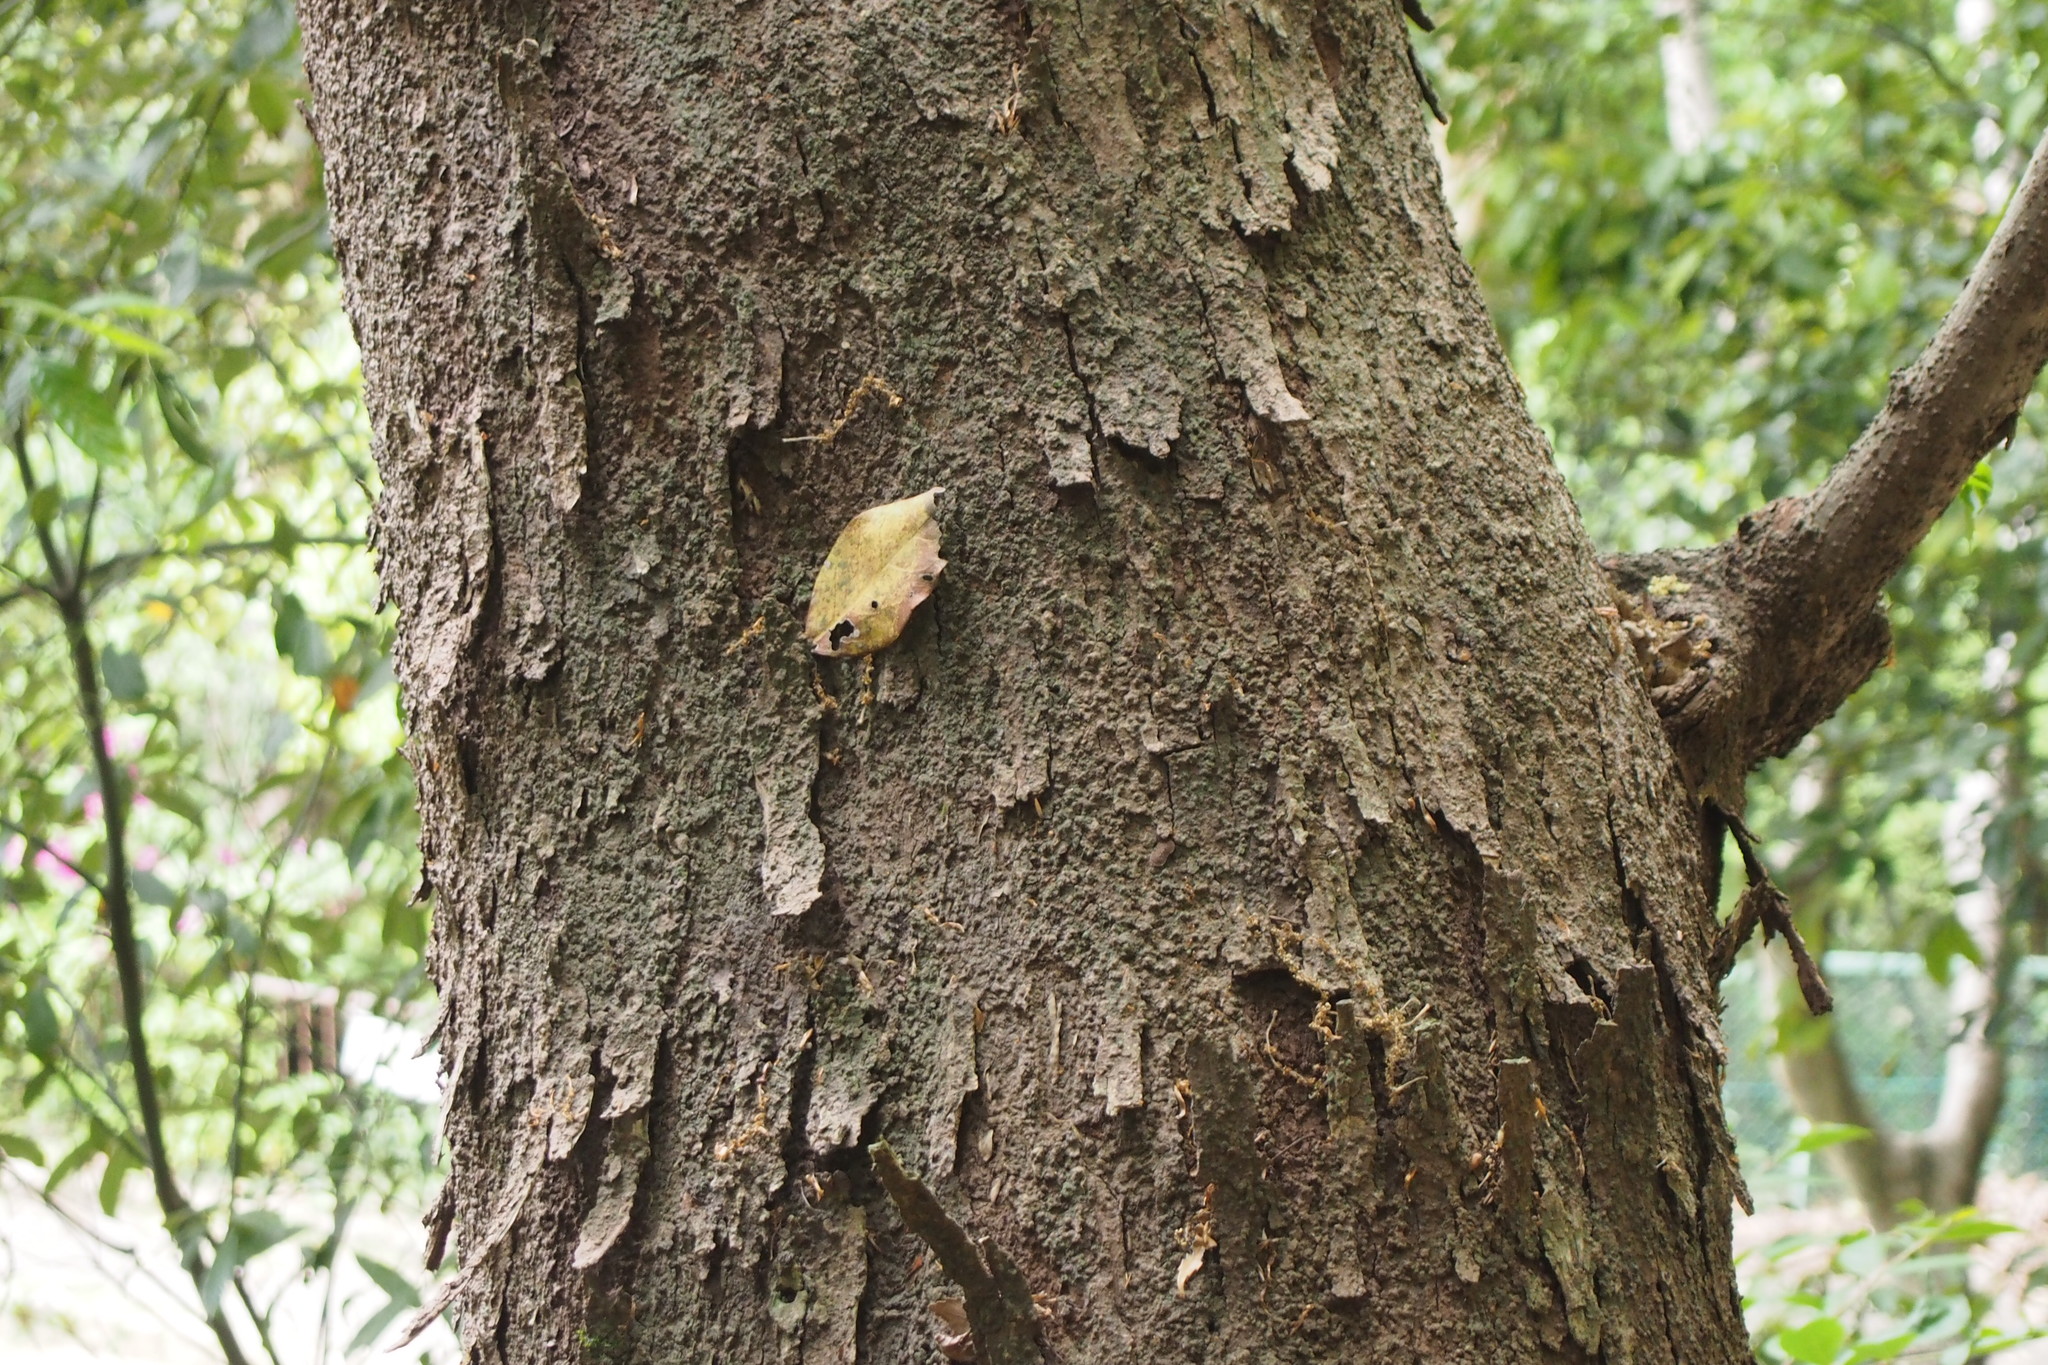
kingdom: Plantae
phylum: Tracheophyta
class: Magnoliopsida
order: Rosales
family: Cannabaceae
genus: Aphananthe
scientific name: Aphananthe aspera
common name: Mukutree
